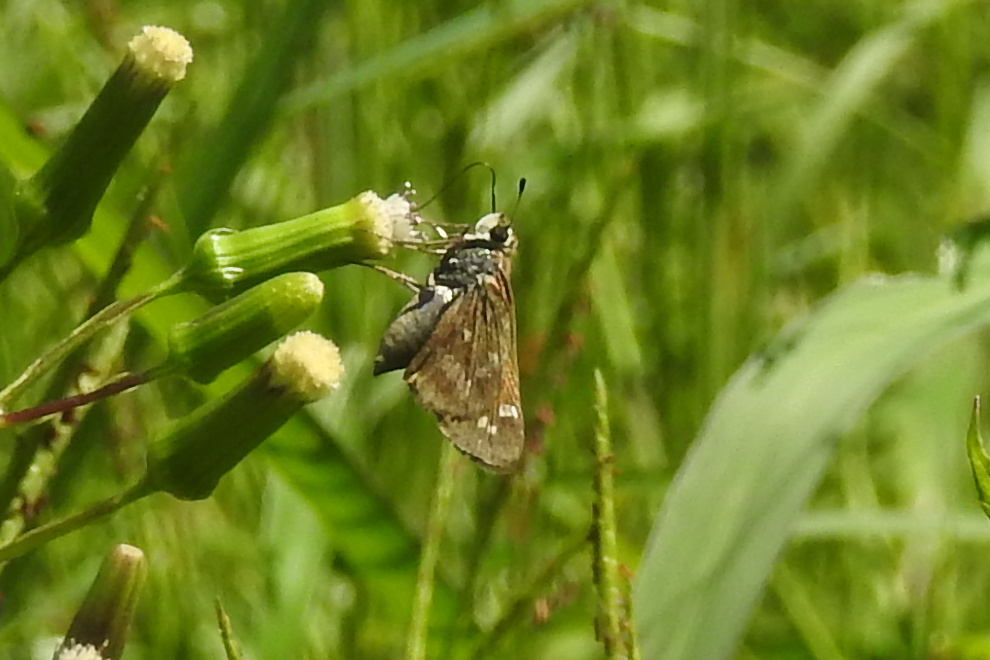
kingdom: Animalia
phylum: Arthropoda
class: Insecta
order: Lepidoptera
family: Hesperiidae
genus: Atalopedes
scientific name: Atalopedes
